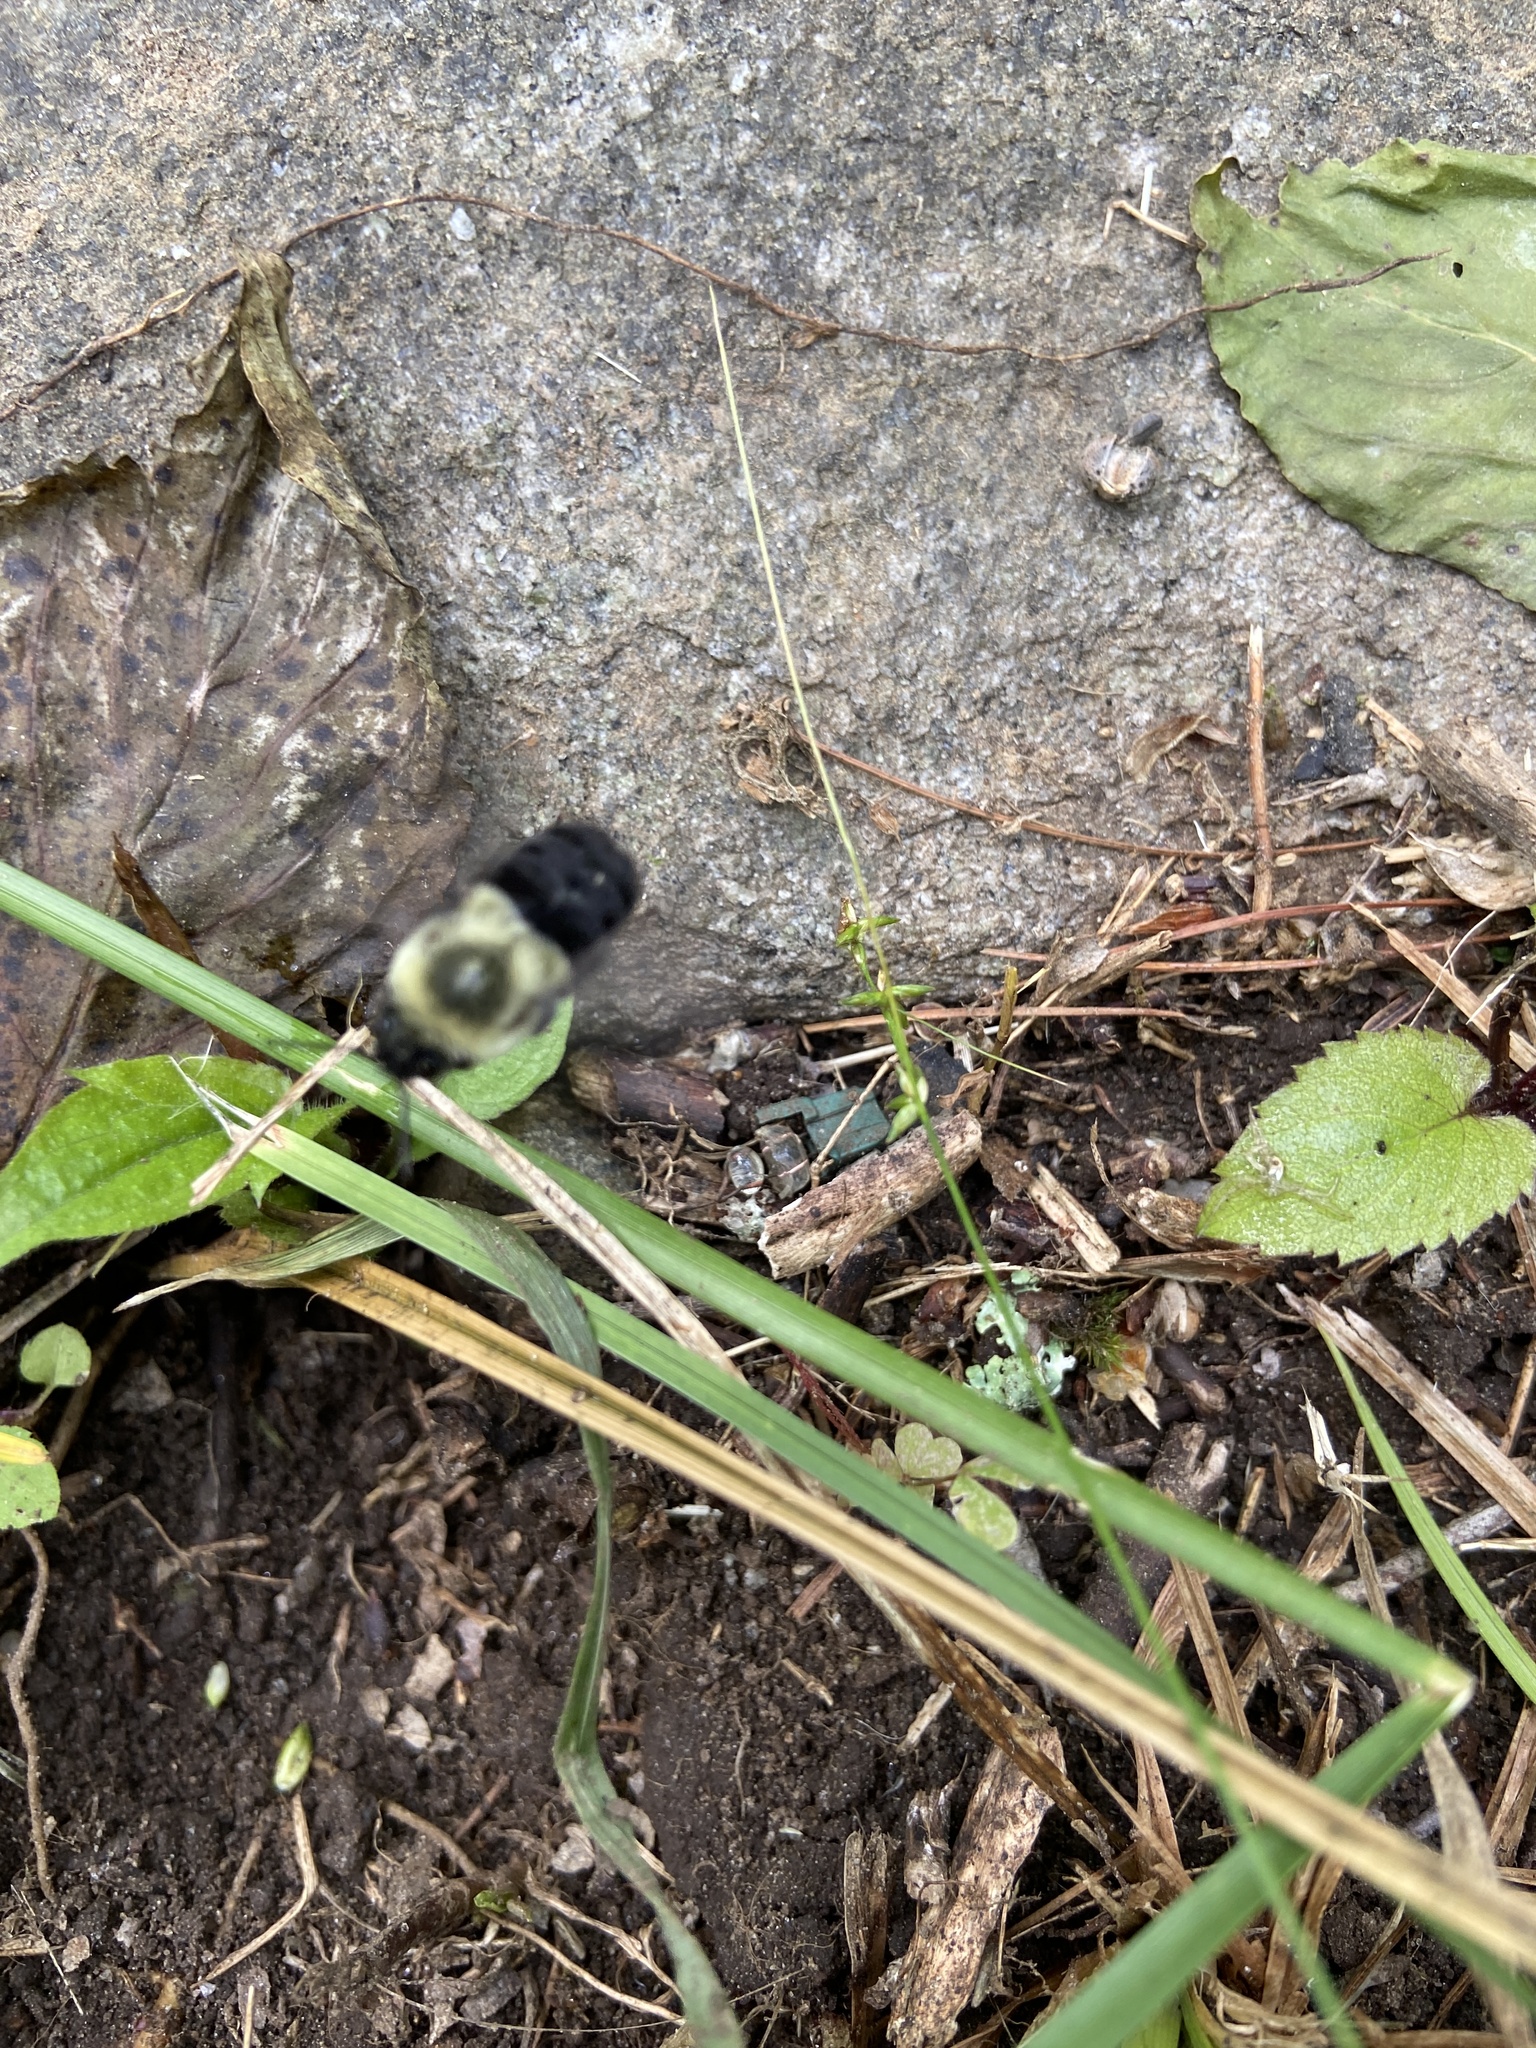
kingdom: Animalia
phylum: Arthropoda
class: Insecta
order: Hymenoptera
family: Apidae
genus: Bombus
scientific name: Bombus impatiens
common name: Common eastern bumble bee
